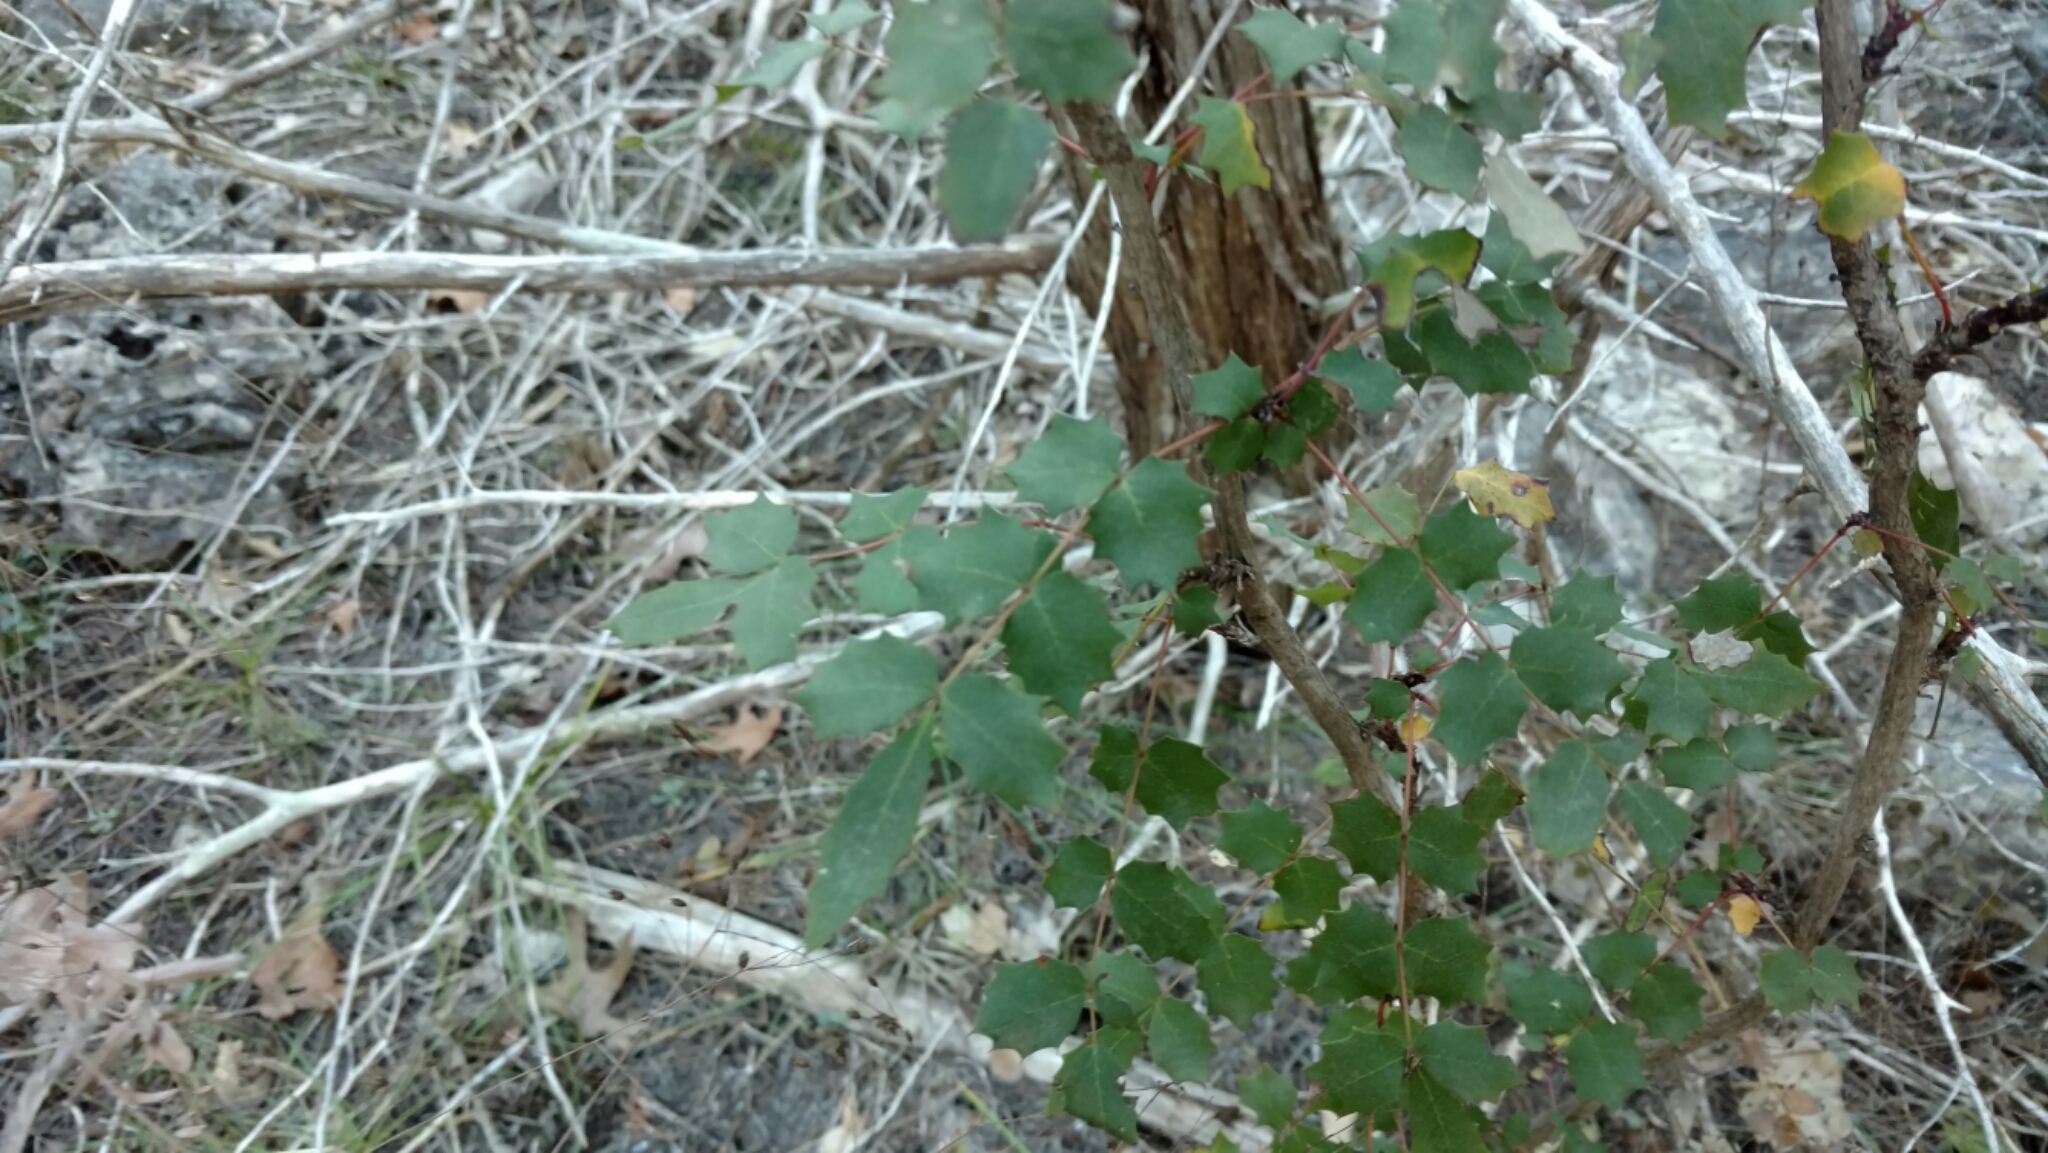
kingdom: Plantae
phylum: Tracheophyta
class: Magnoliopsida
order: Ranunculales
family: Berberidaceae
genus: Berberis
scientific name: Berberis swaseyi
